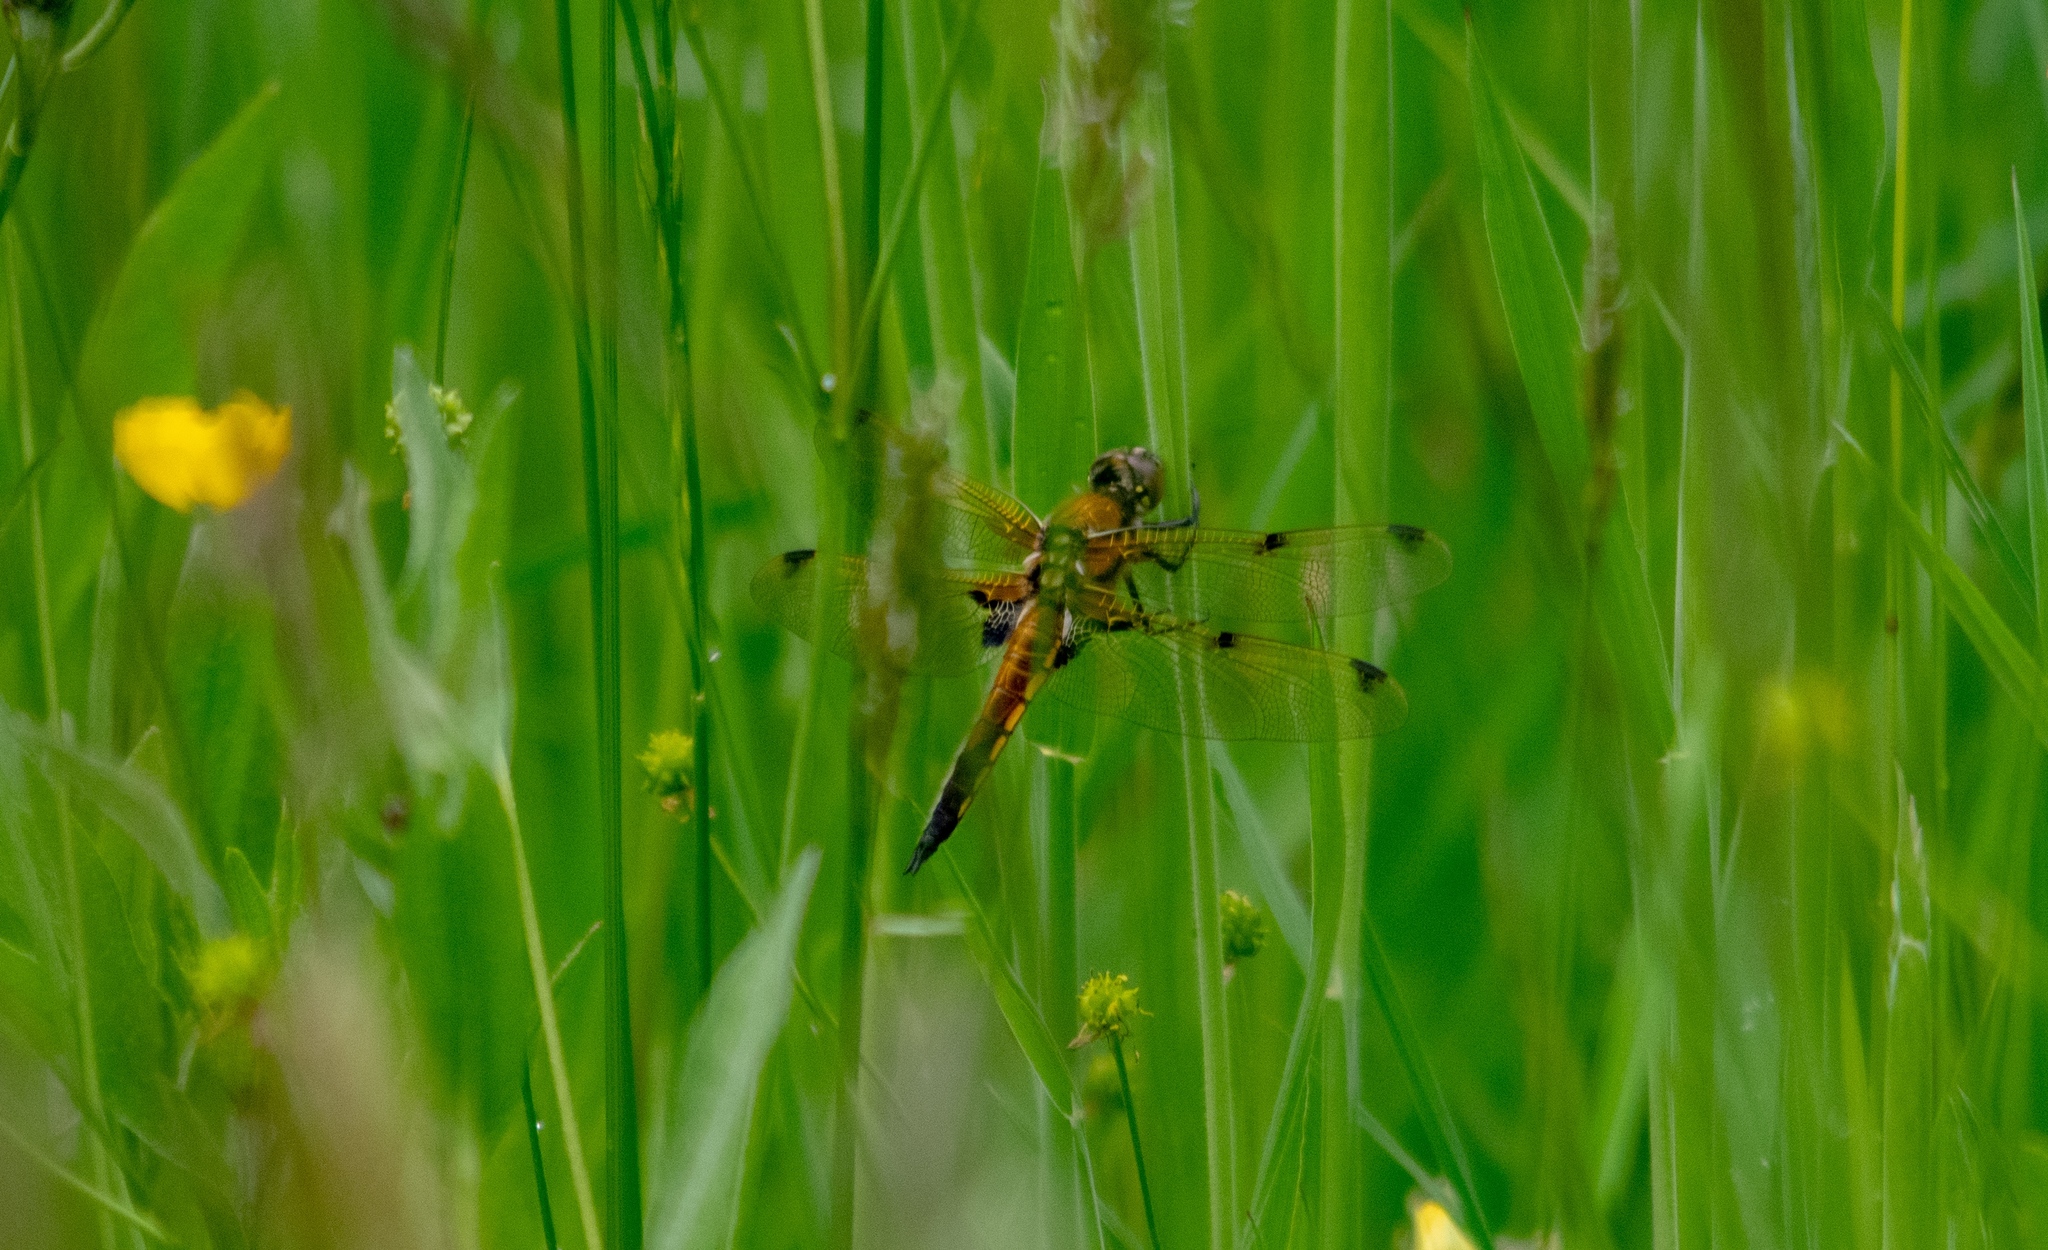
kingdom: Animalia
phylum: Arthropoda
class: Insecta
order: Odonata
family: Libellulidae
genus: Libellula
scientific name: Libellula quadrimaculata
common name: Four-spotted chaser
